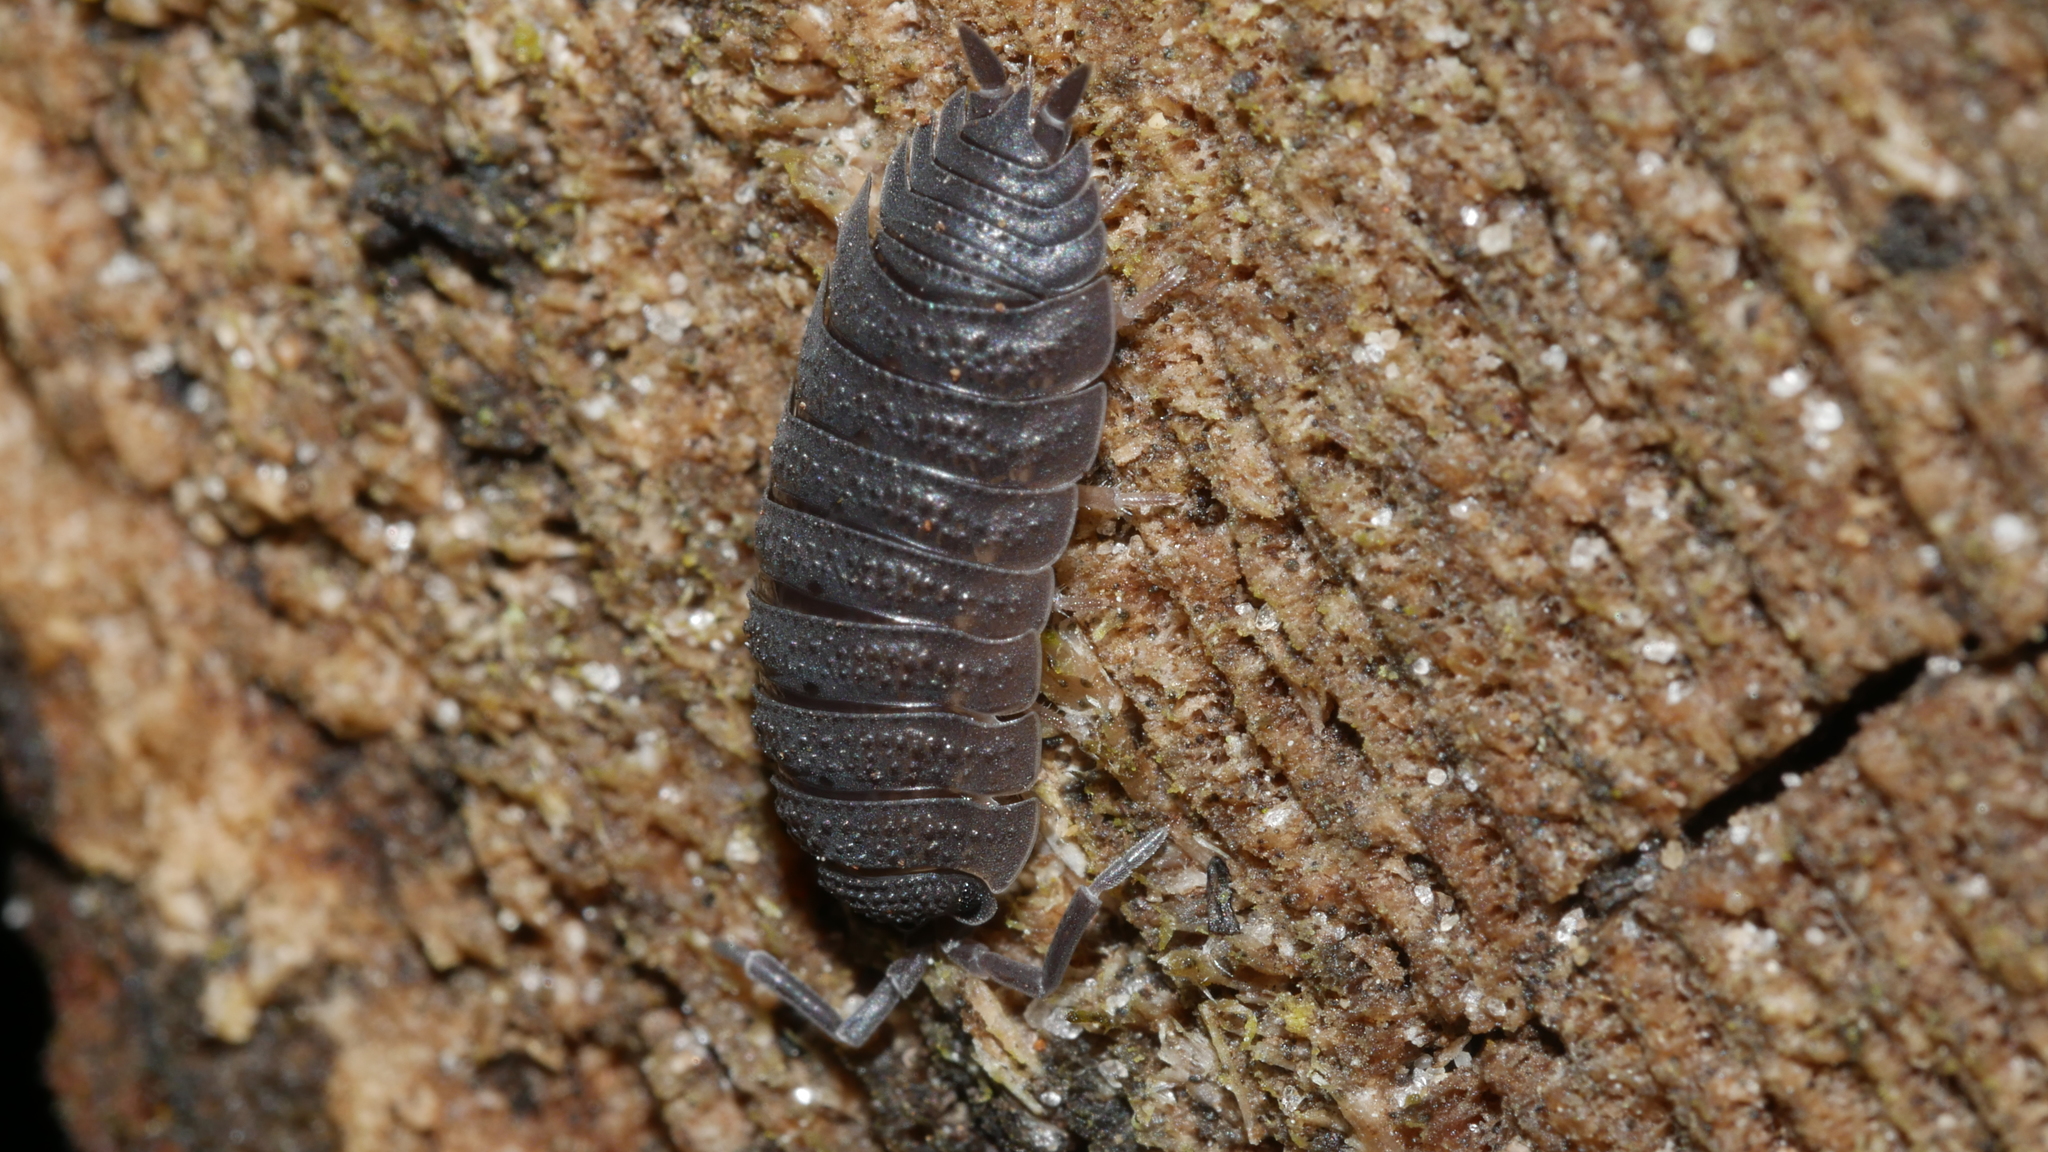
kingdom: Animalia
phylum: Arthropoda
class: Malacostraca
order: Isopoda
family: Porcellionidae
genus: Porcellio
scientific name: Porcellio scaber
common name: Common rough woodlouse
